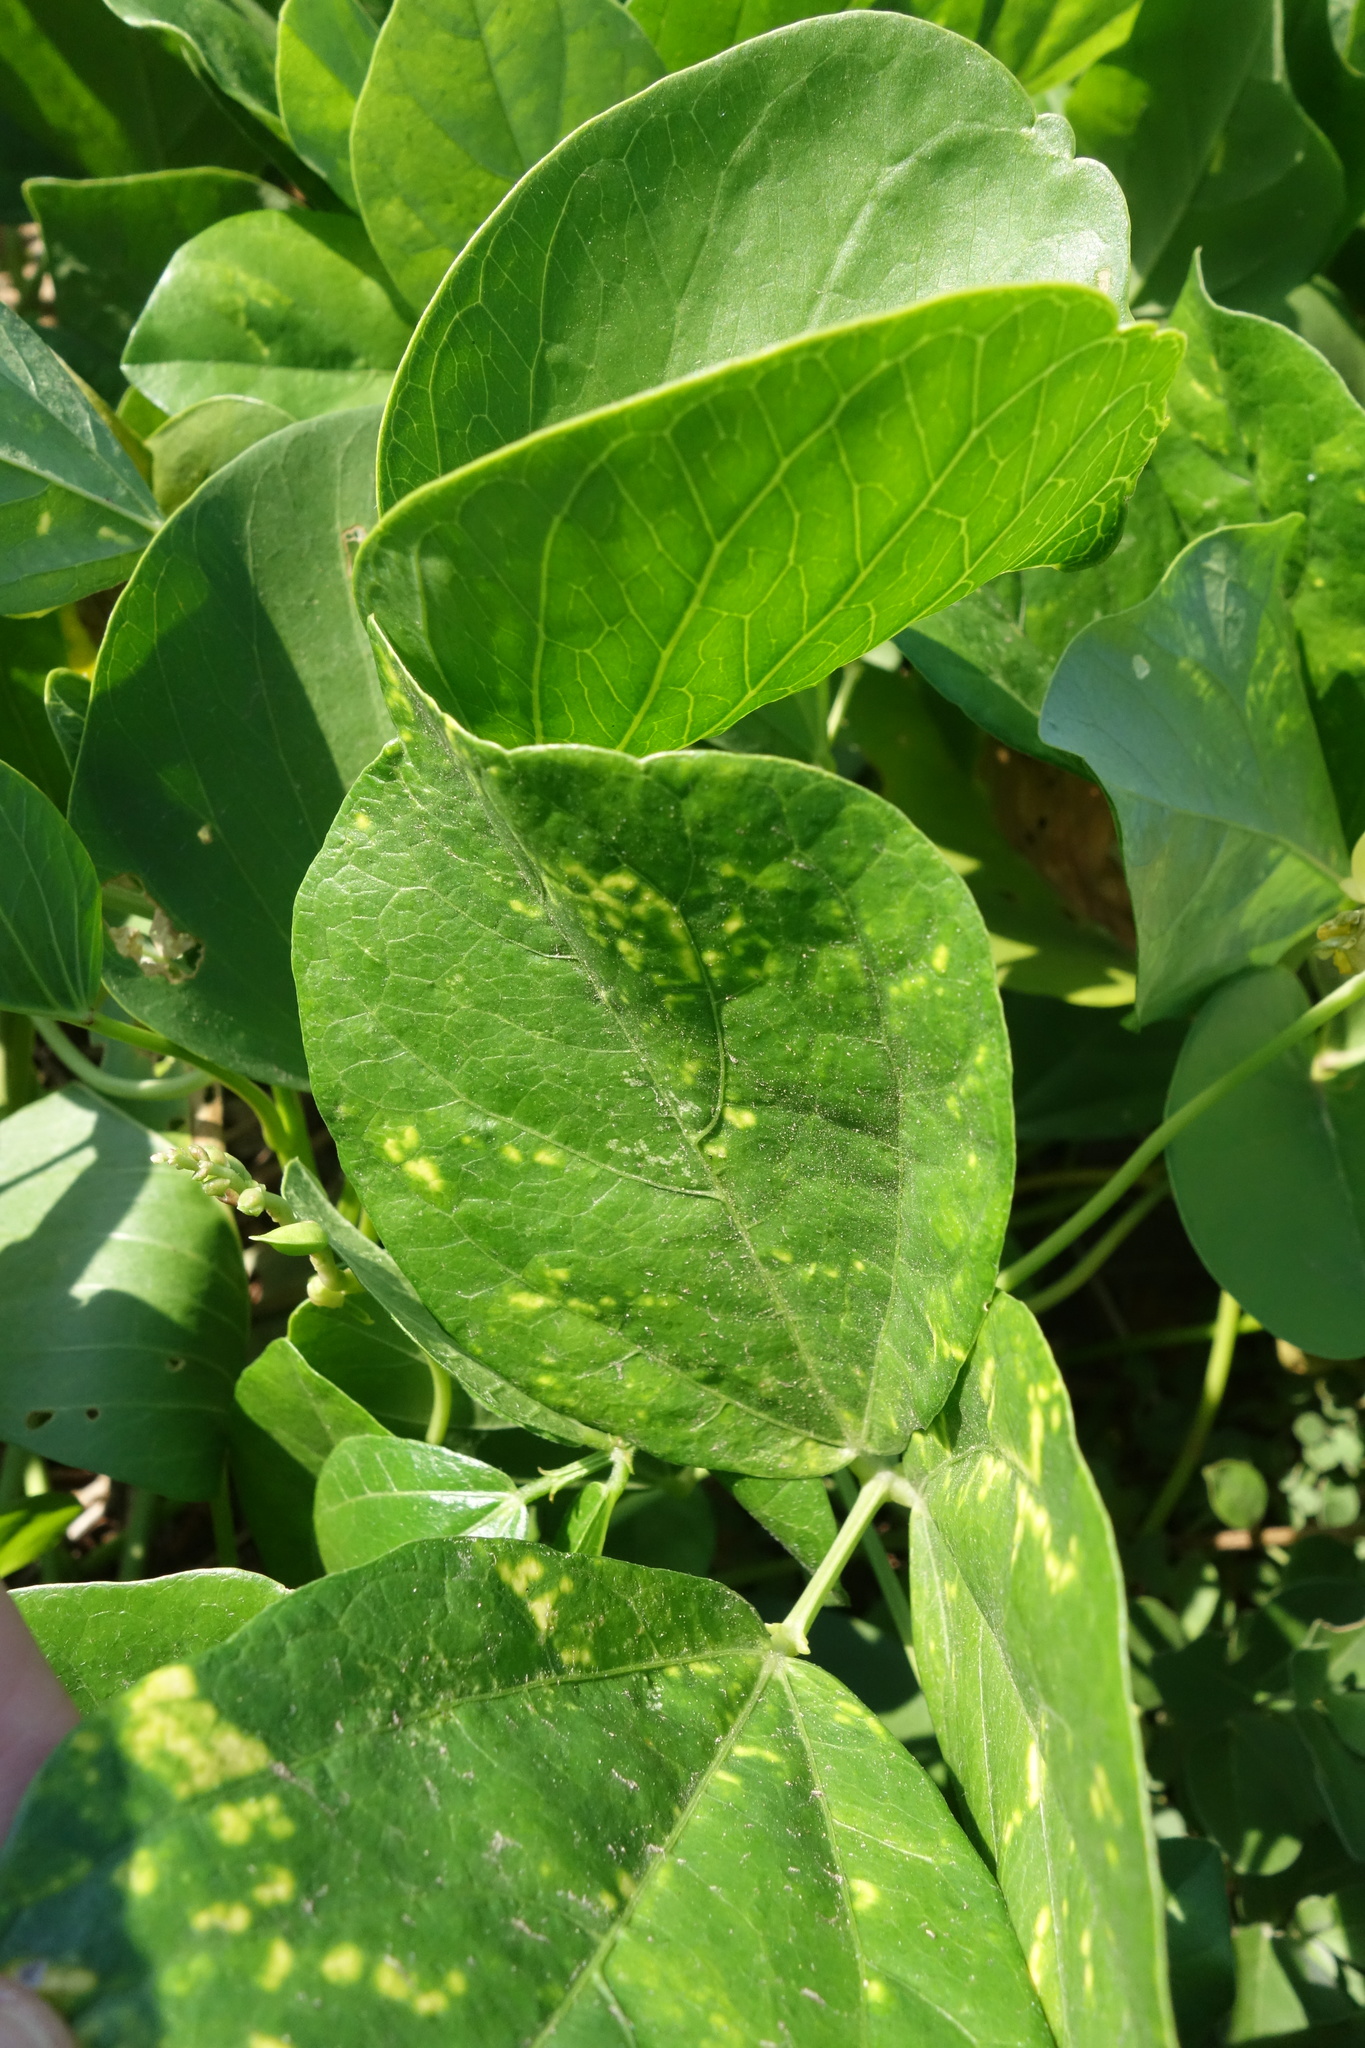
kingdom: Plantae
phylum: Tracheophyta
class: Magnoliopsida
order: Fabales
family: Fabaceae
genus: Vigna
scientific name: Vigna marina
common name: Dune-bean
